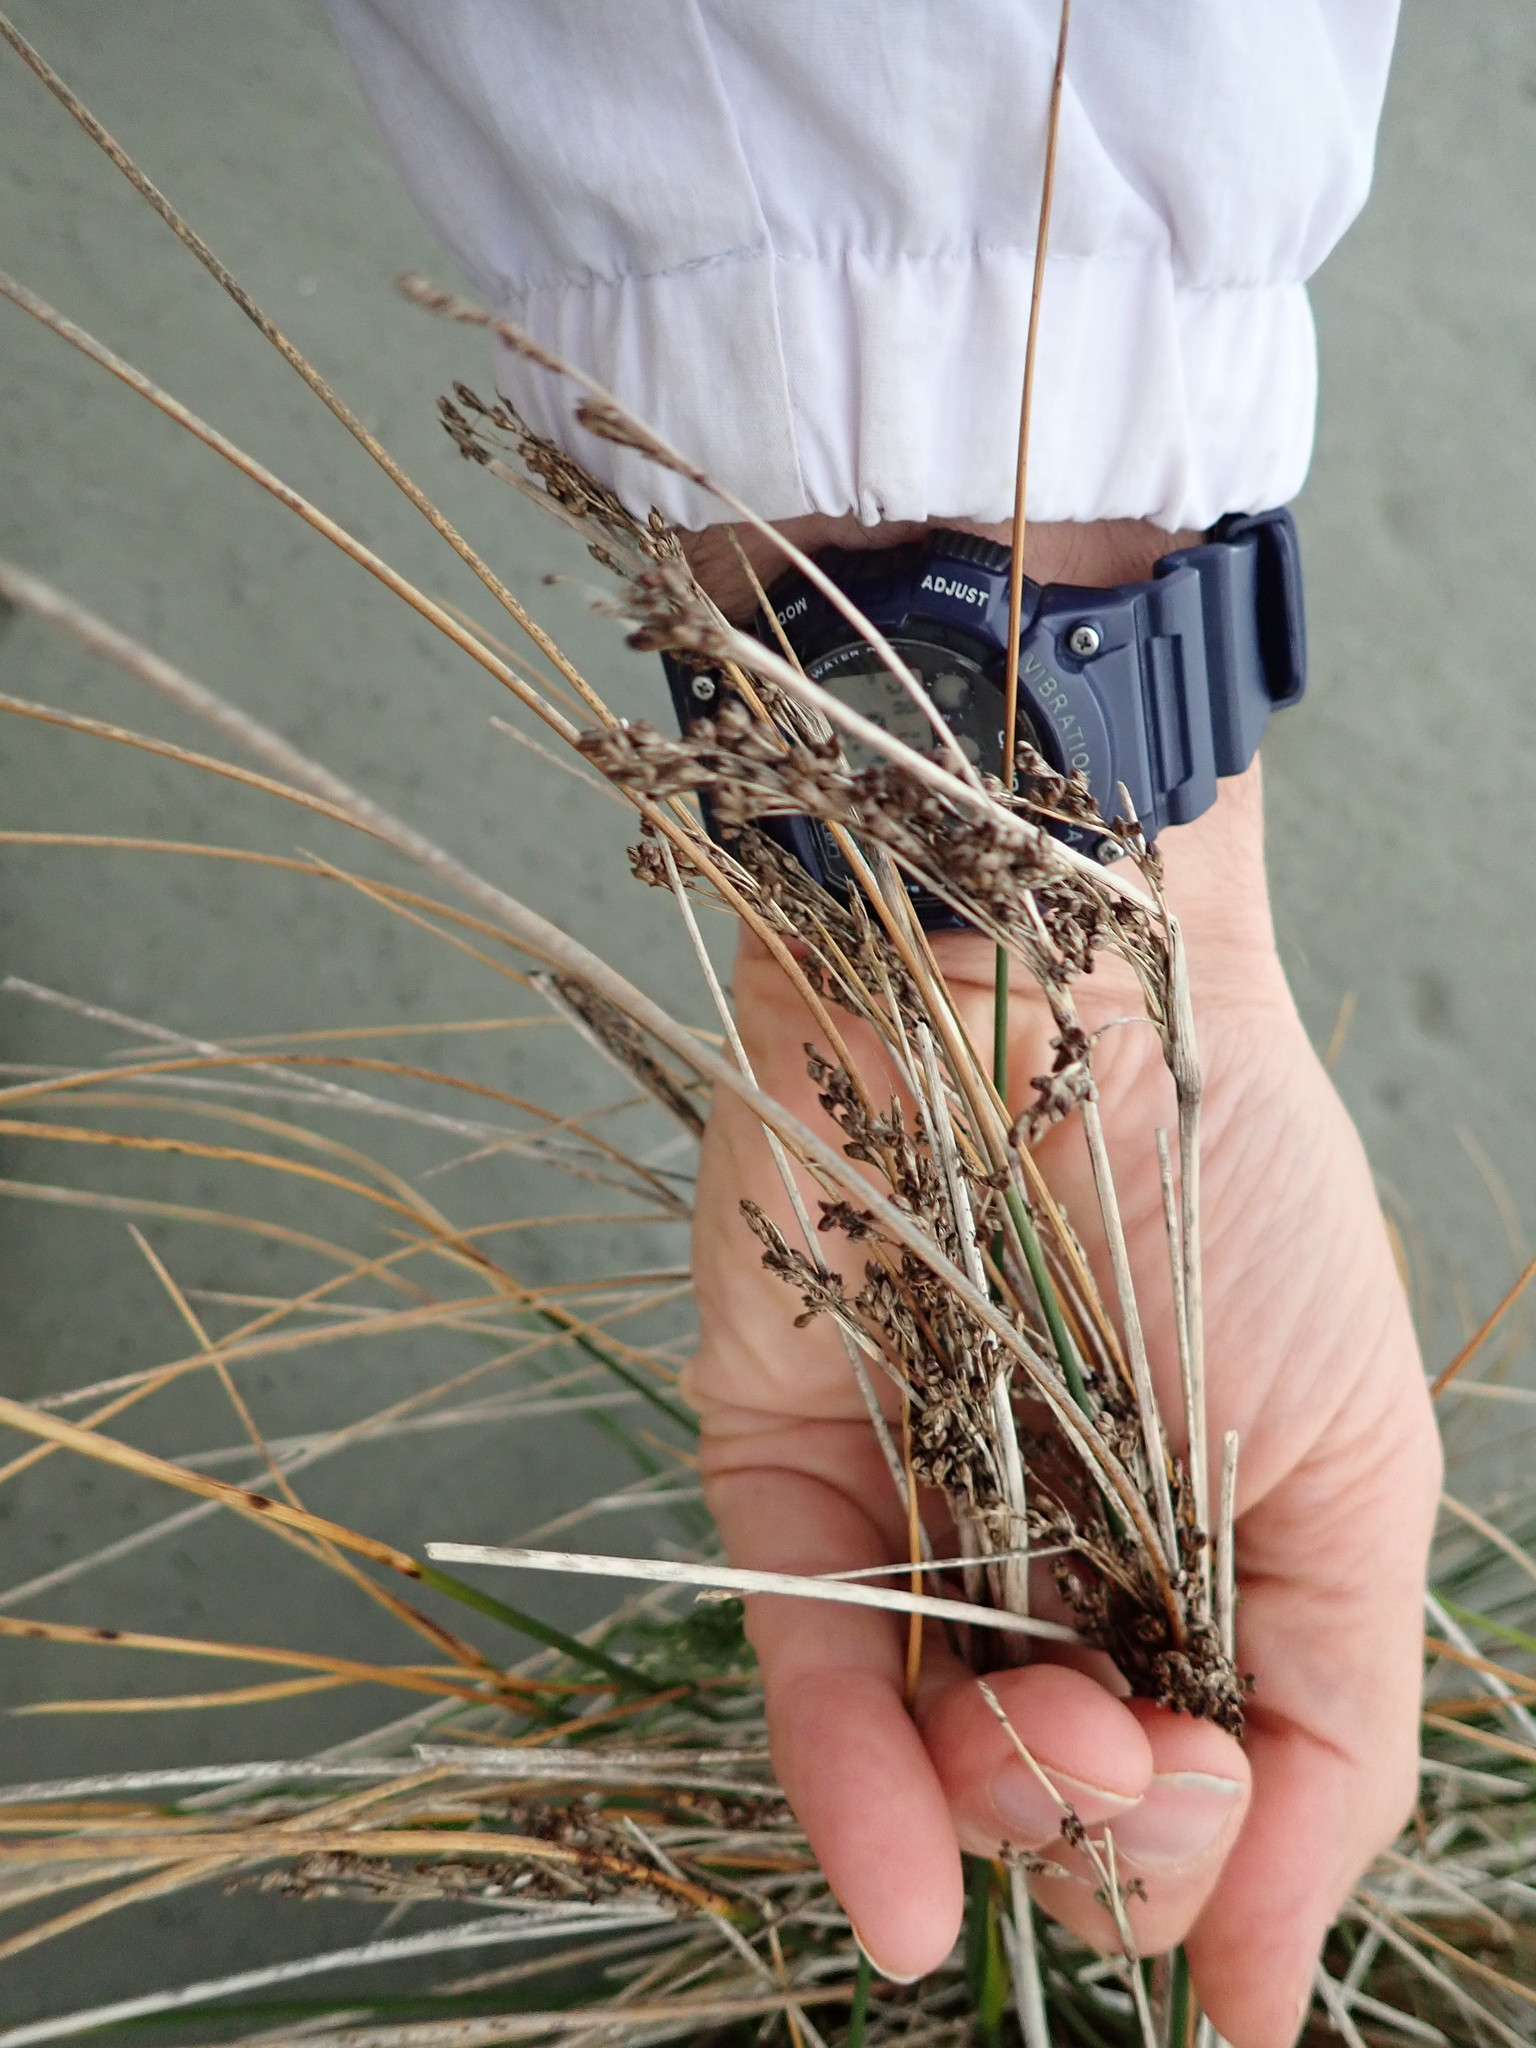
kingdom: Plantae
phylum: Tracheophyta
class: Liliopsida
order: Poales
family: Juncaceae
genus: Juncus
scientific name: Juncus kraussii
